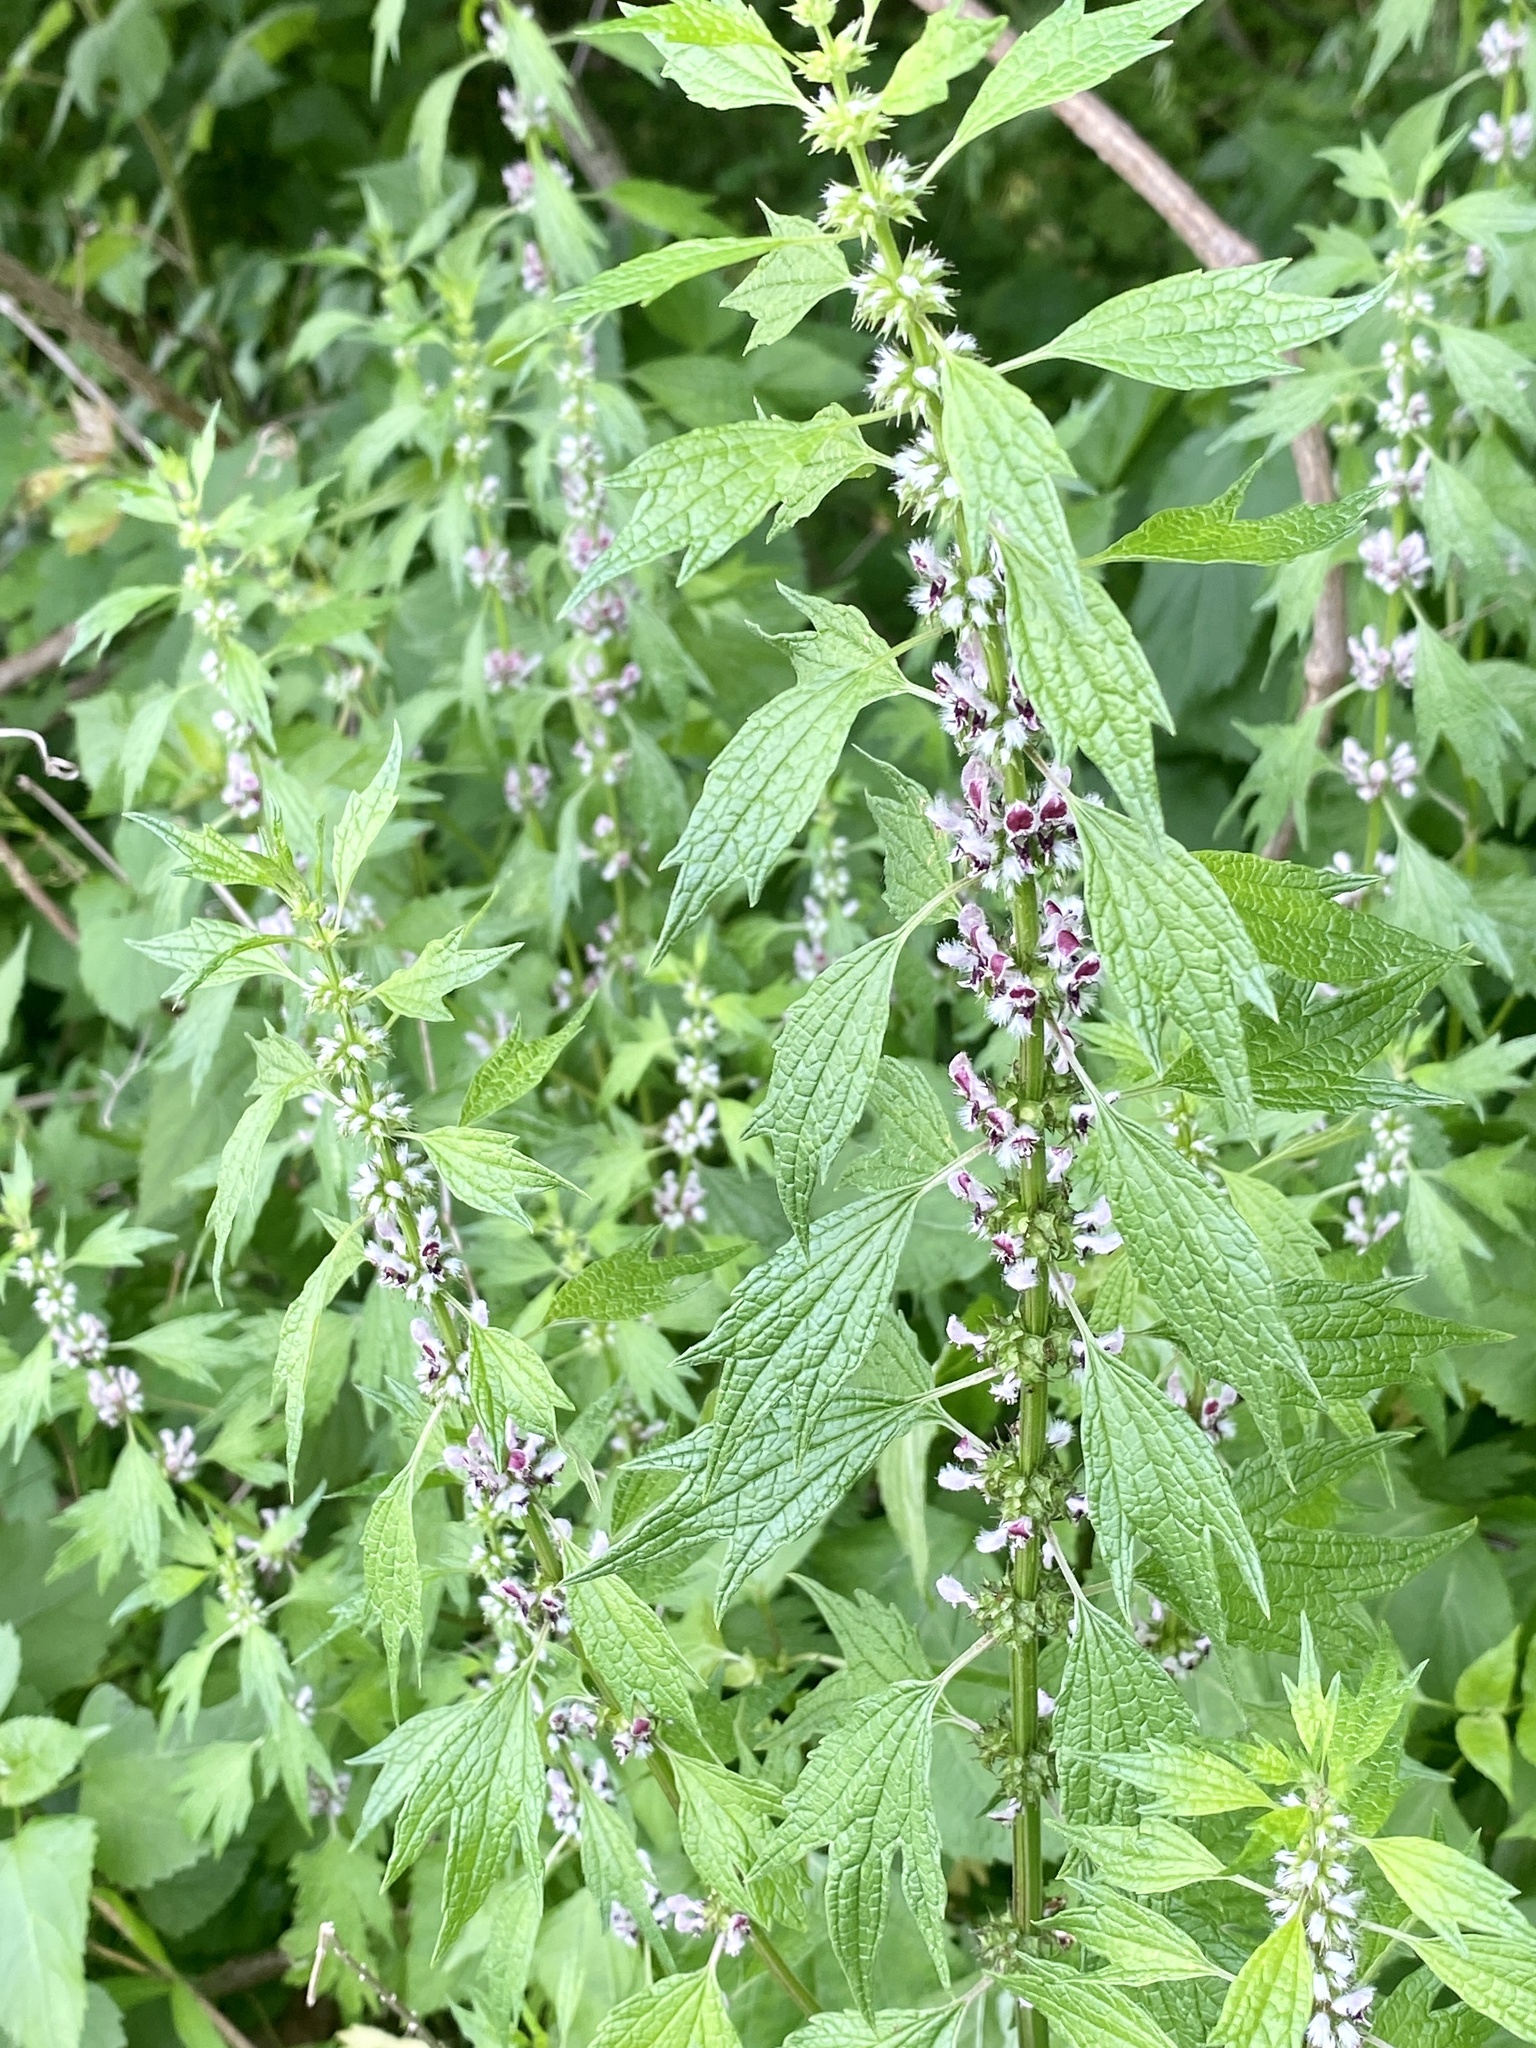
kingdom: Plantae
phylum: Tracheophyta
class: Magnoliopsida
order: Lamiales
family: Lamiaceae
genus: Leonurus
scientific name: Leonurus cardiaca
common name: Motherwort
